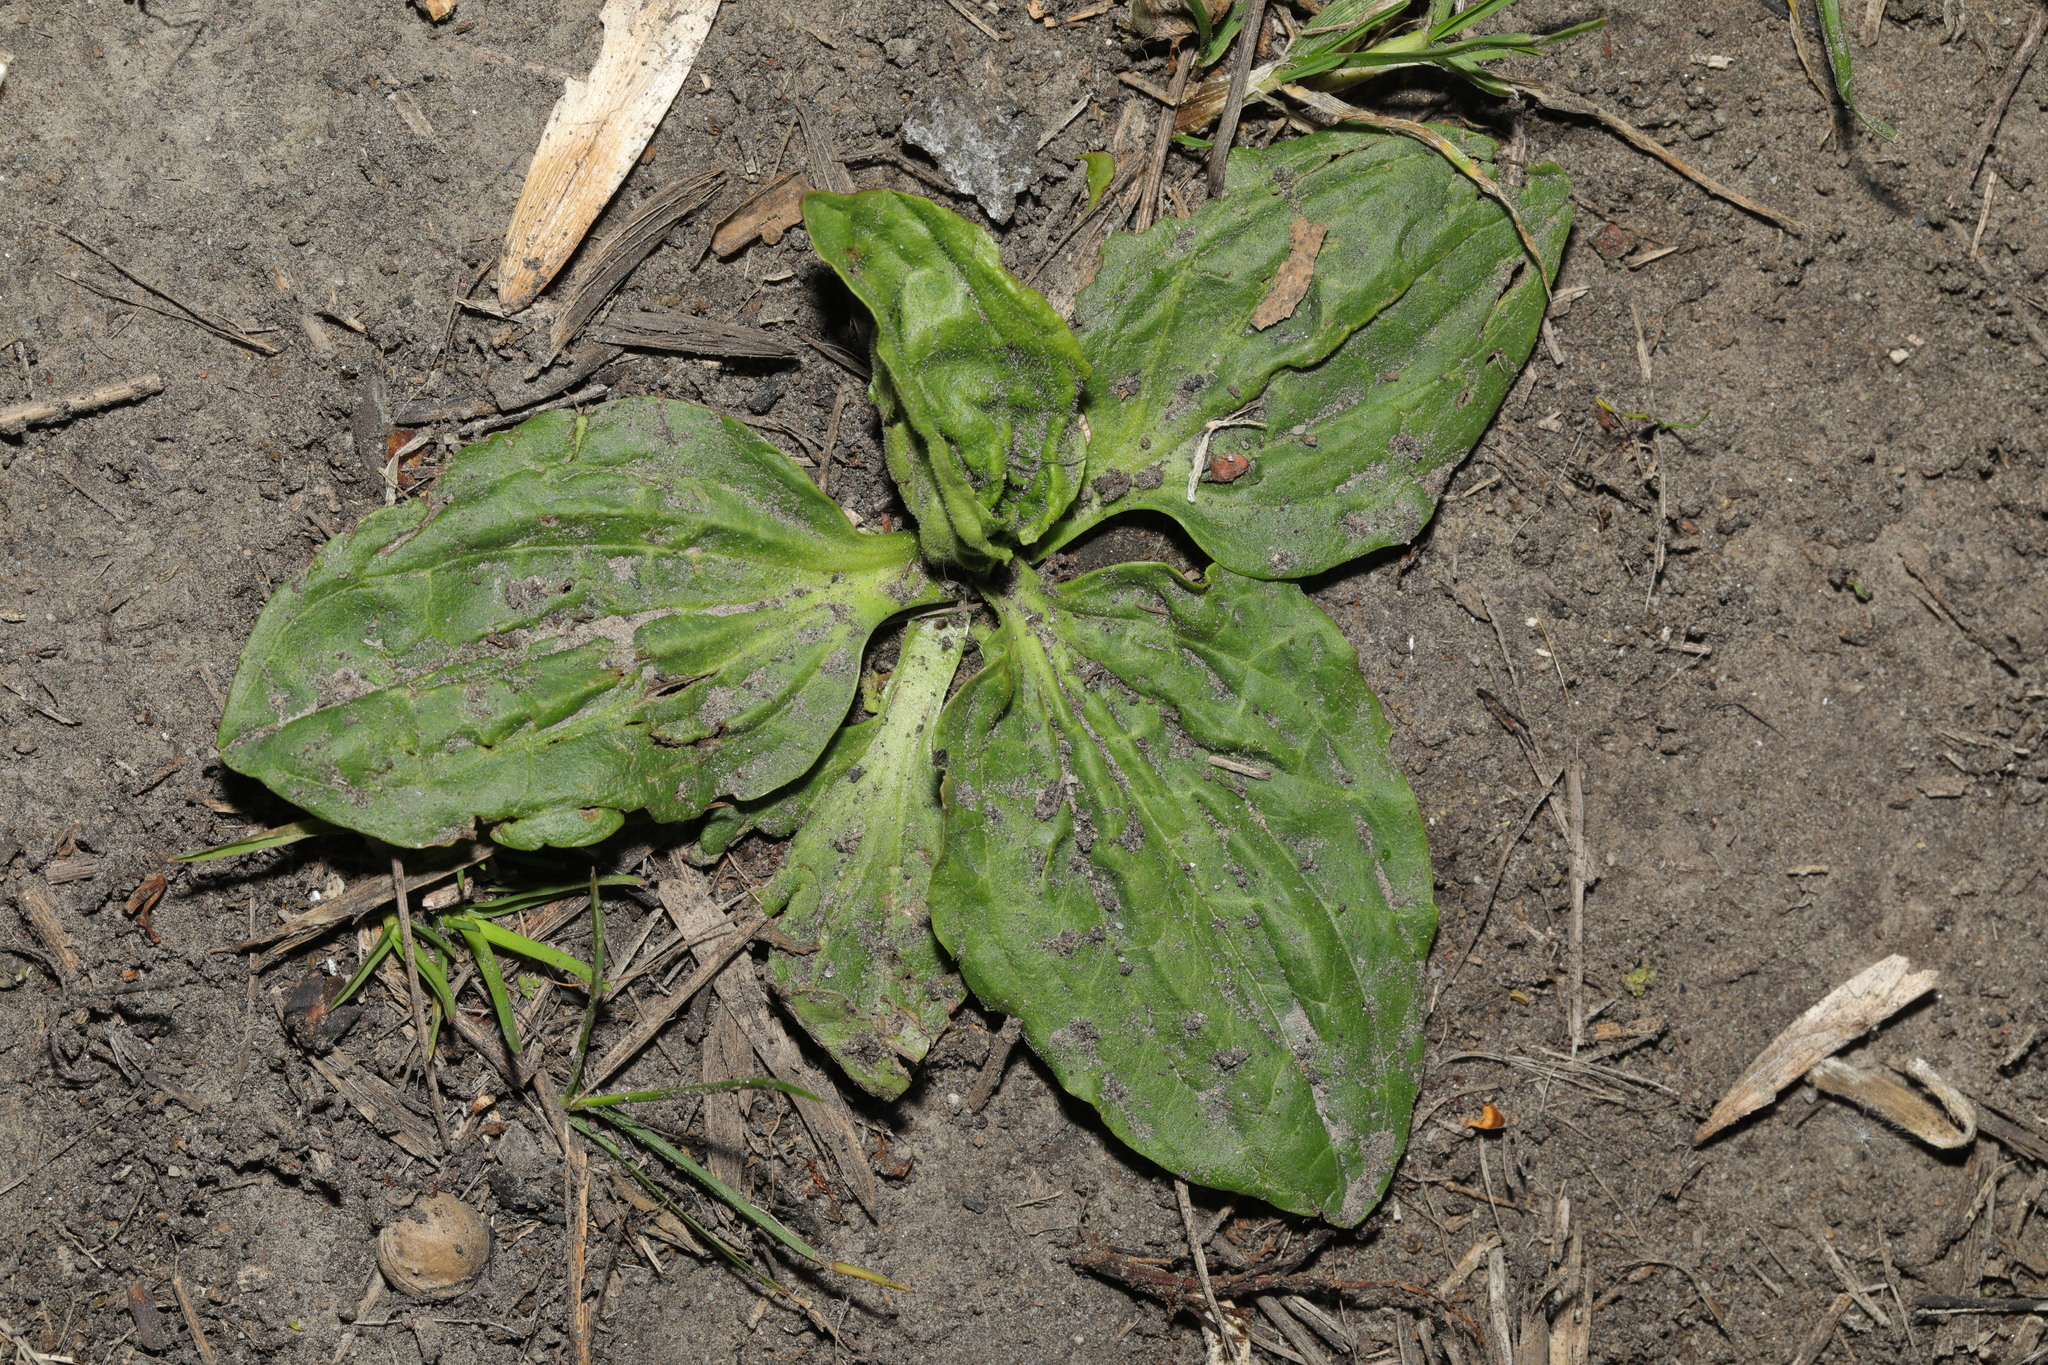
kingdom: Plantae
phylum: Tracheophyta
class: Magnoliopsida
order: Lamiales
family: Plantaginaceae
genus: Plantago
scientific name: Plantago major
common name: Common plantain
